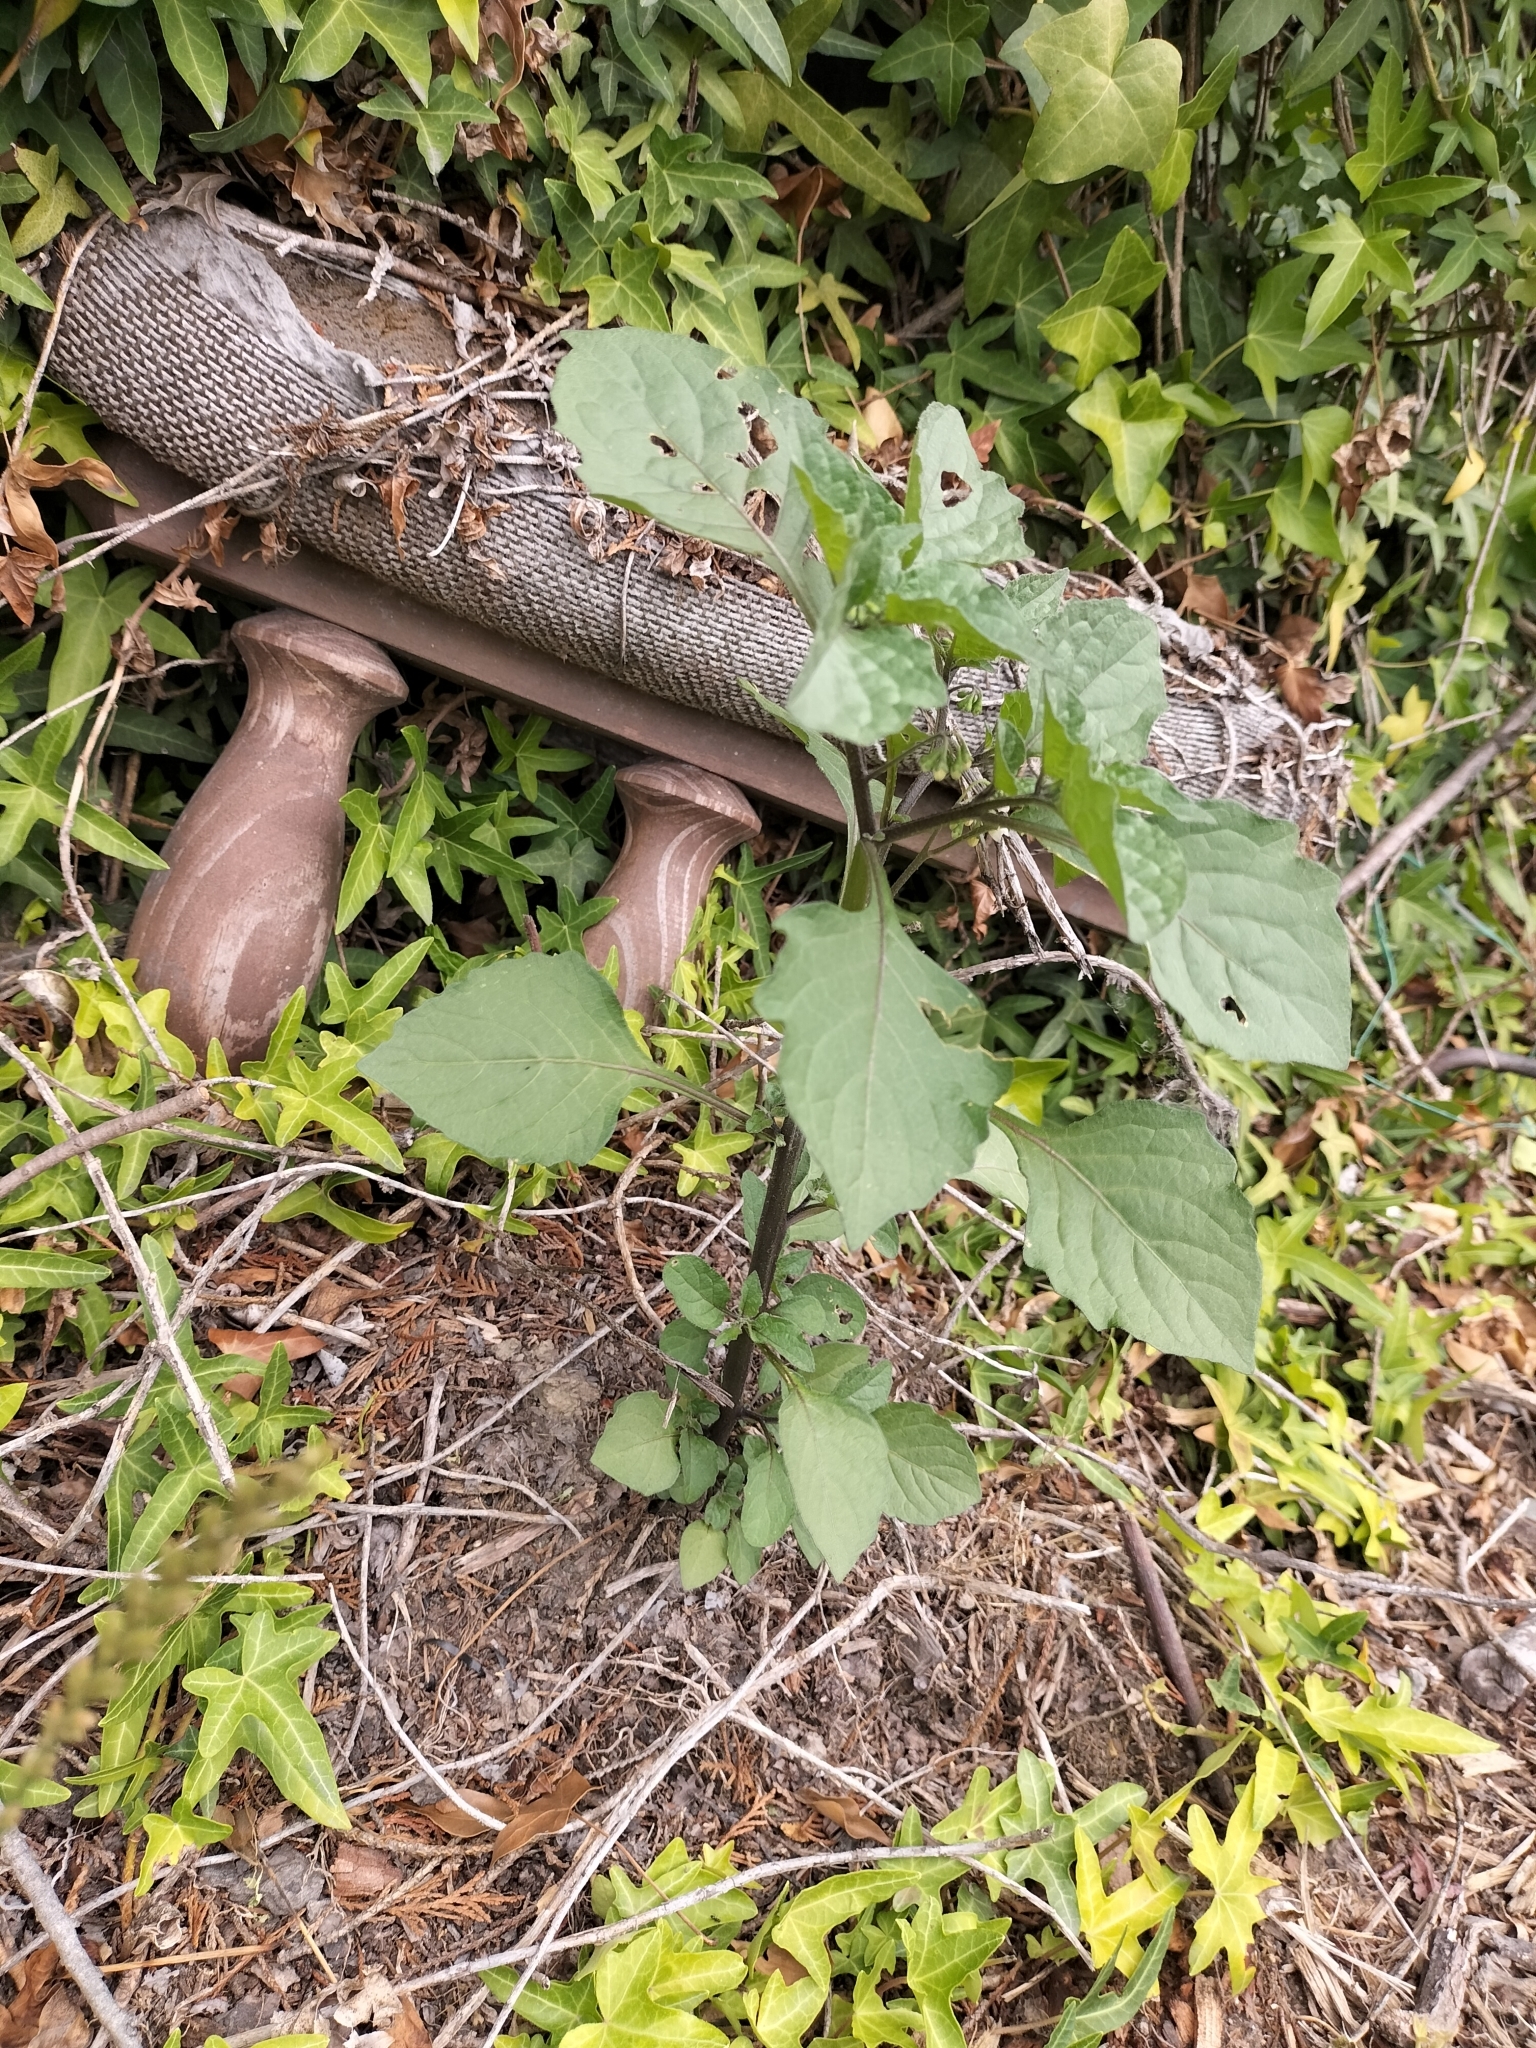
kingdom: Plantae
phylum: Tracheophyta
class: Magnoliopsida
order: Solanales
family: Solanaceae
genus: Solanum
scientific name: Solanum nigrum
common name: Black nightshade
